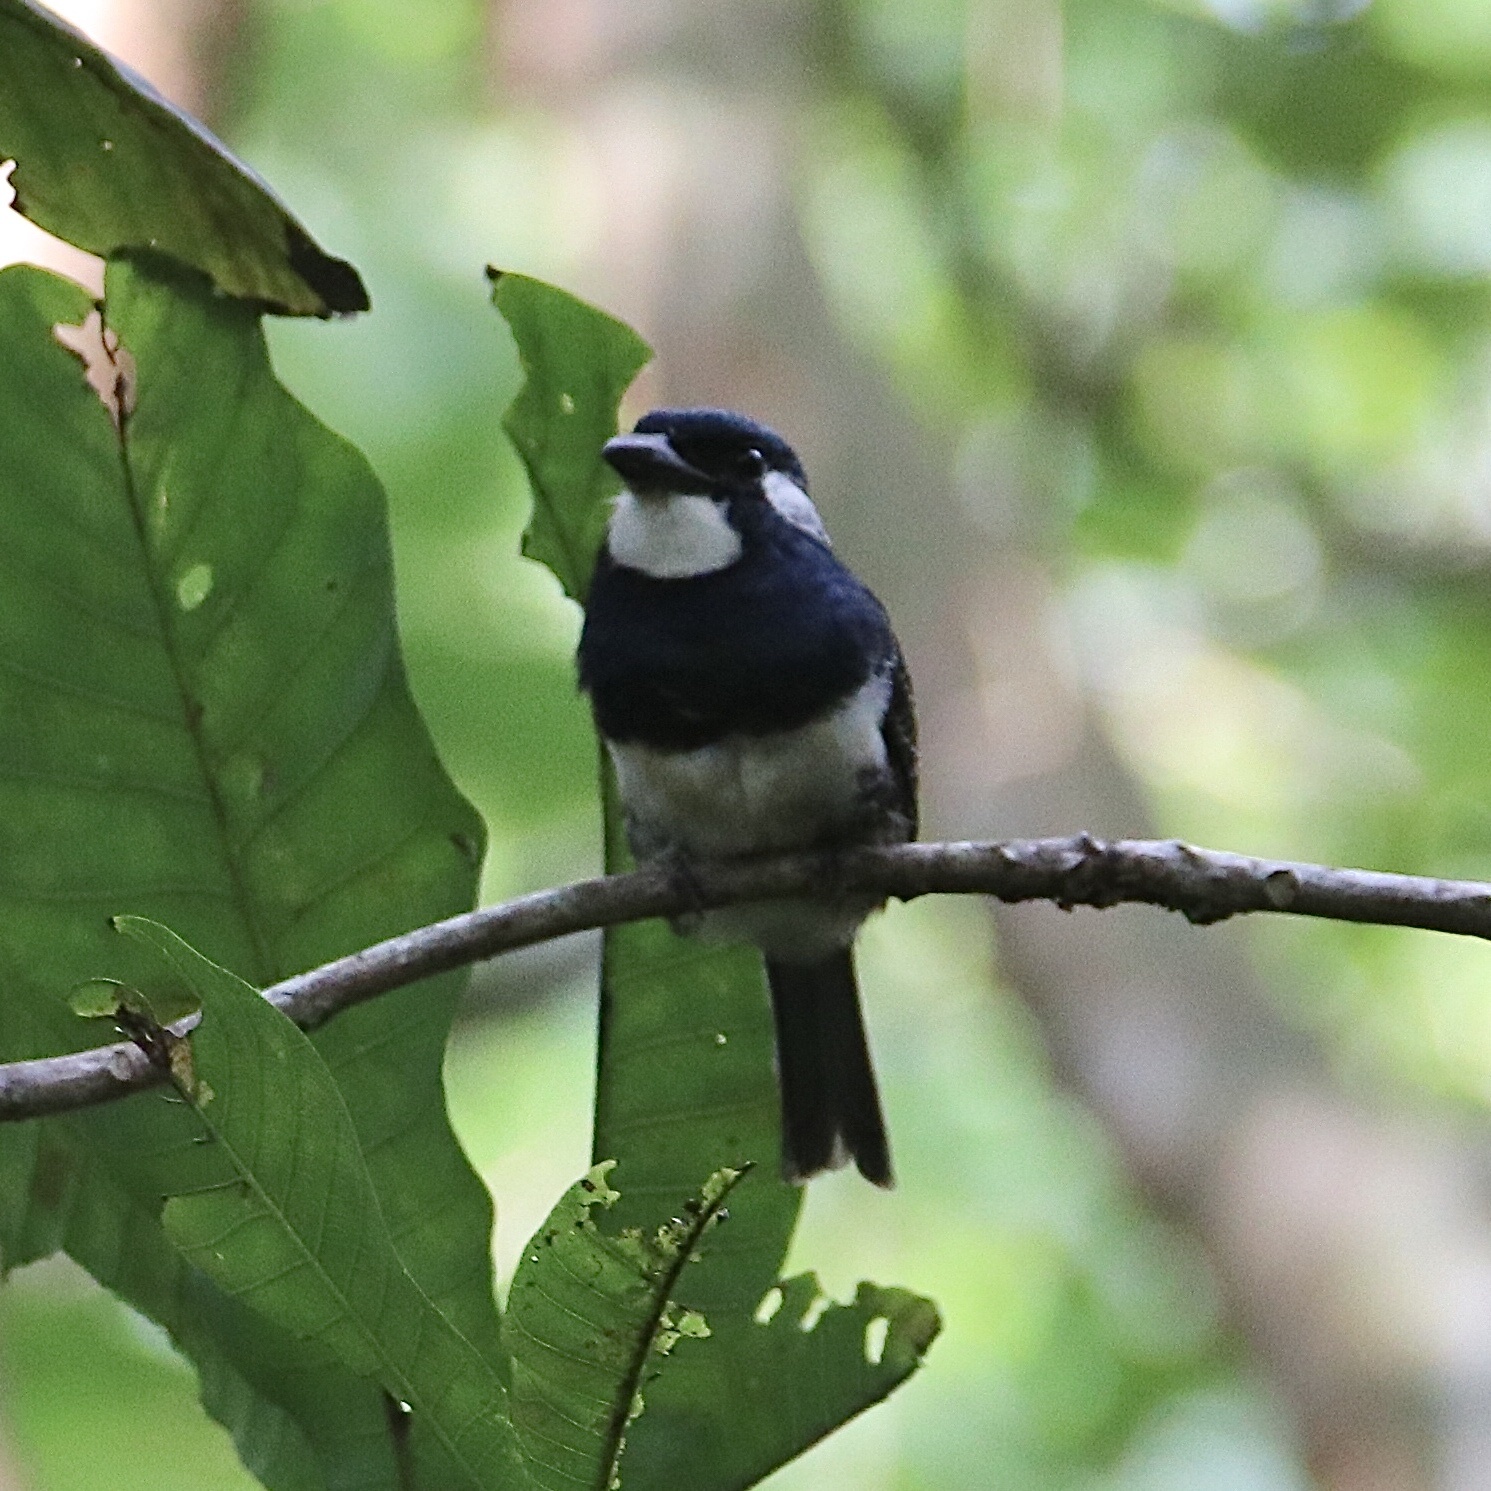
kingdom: Animalia
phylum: Chordata
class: Aves
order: Piciformes
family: Bucconidae
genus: Notharchus
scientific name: Notharchus pectoralis
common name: Black-breasted puffbird
